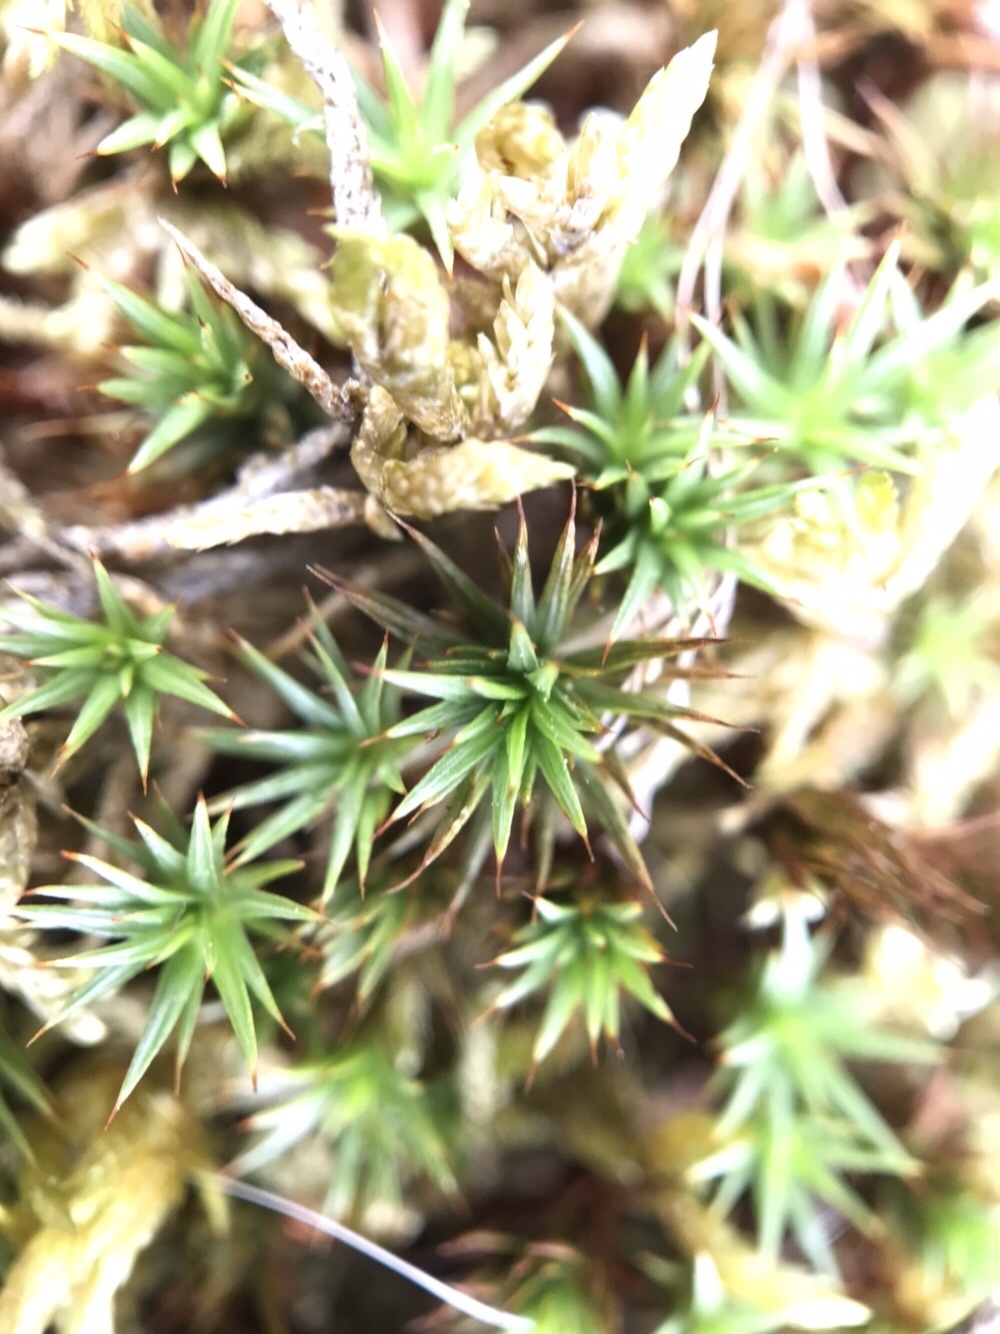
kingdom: Plantae
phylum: Bryophyta
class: Polytrichopsida
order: Polytrichales
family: Polytrichaceae
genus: Polytrichum
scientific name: Polytrichum juniperinum
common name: Juniper haircap moss
